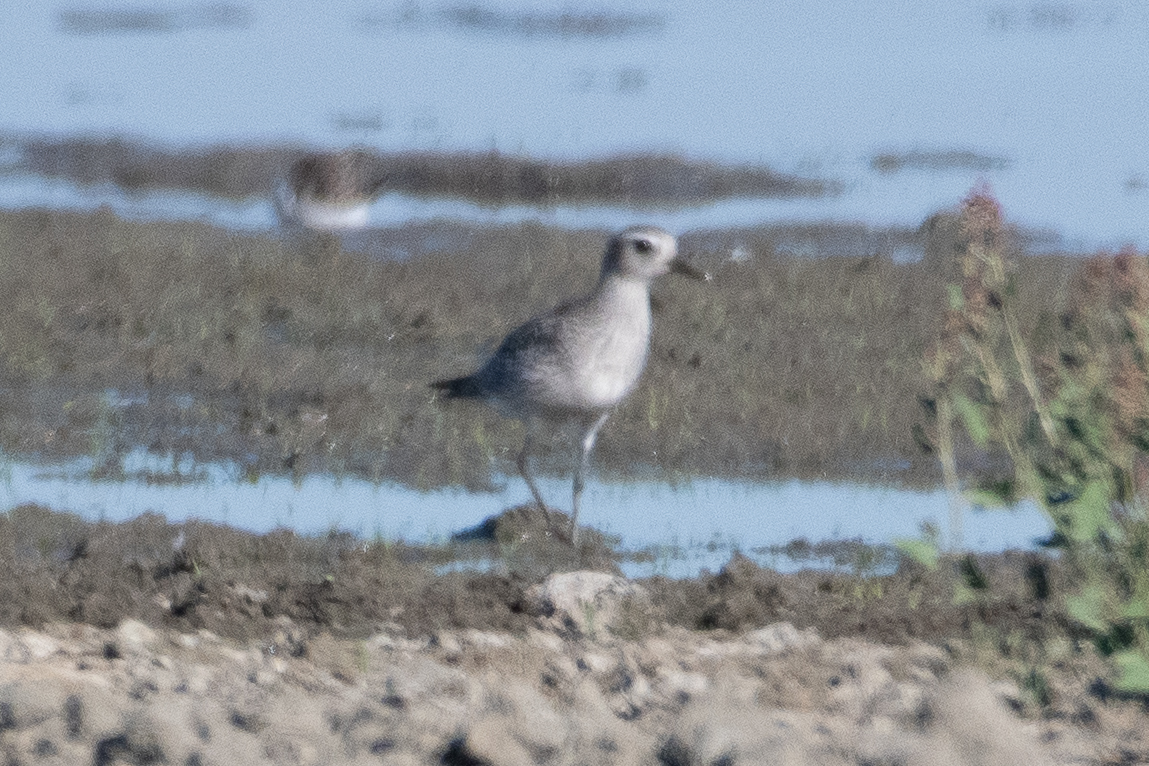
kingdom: Animalia
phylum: Chordata
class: Aves
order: Charadriiformes
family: Charadriidae
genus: Pluvialis
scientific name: Pluvialis squatarola
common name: Grey plover
